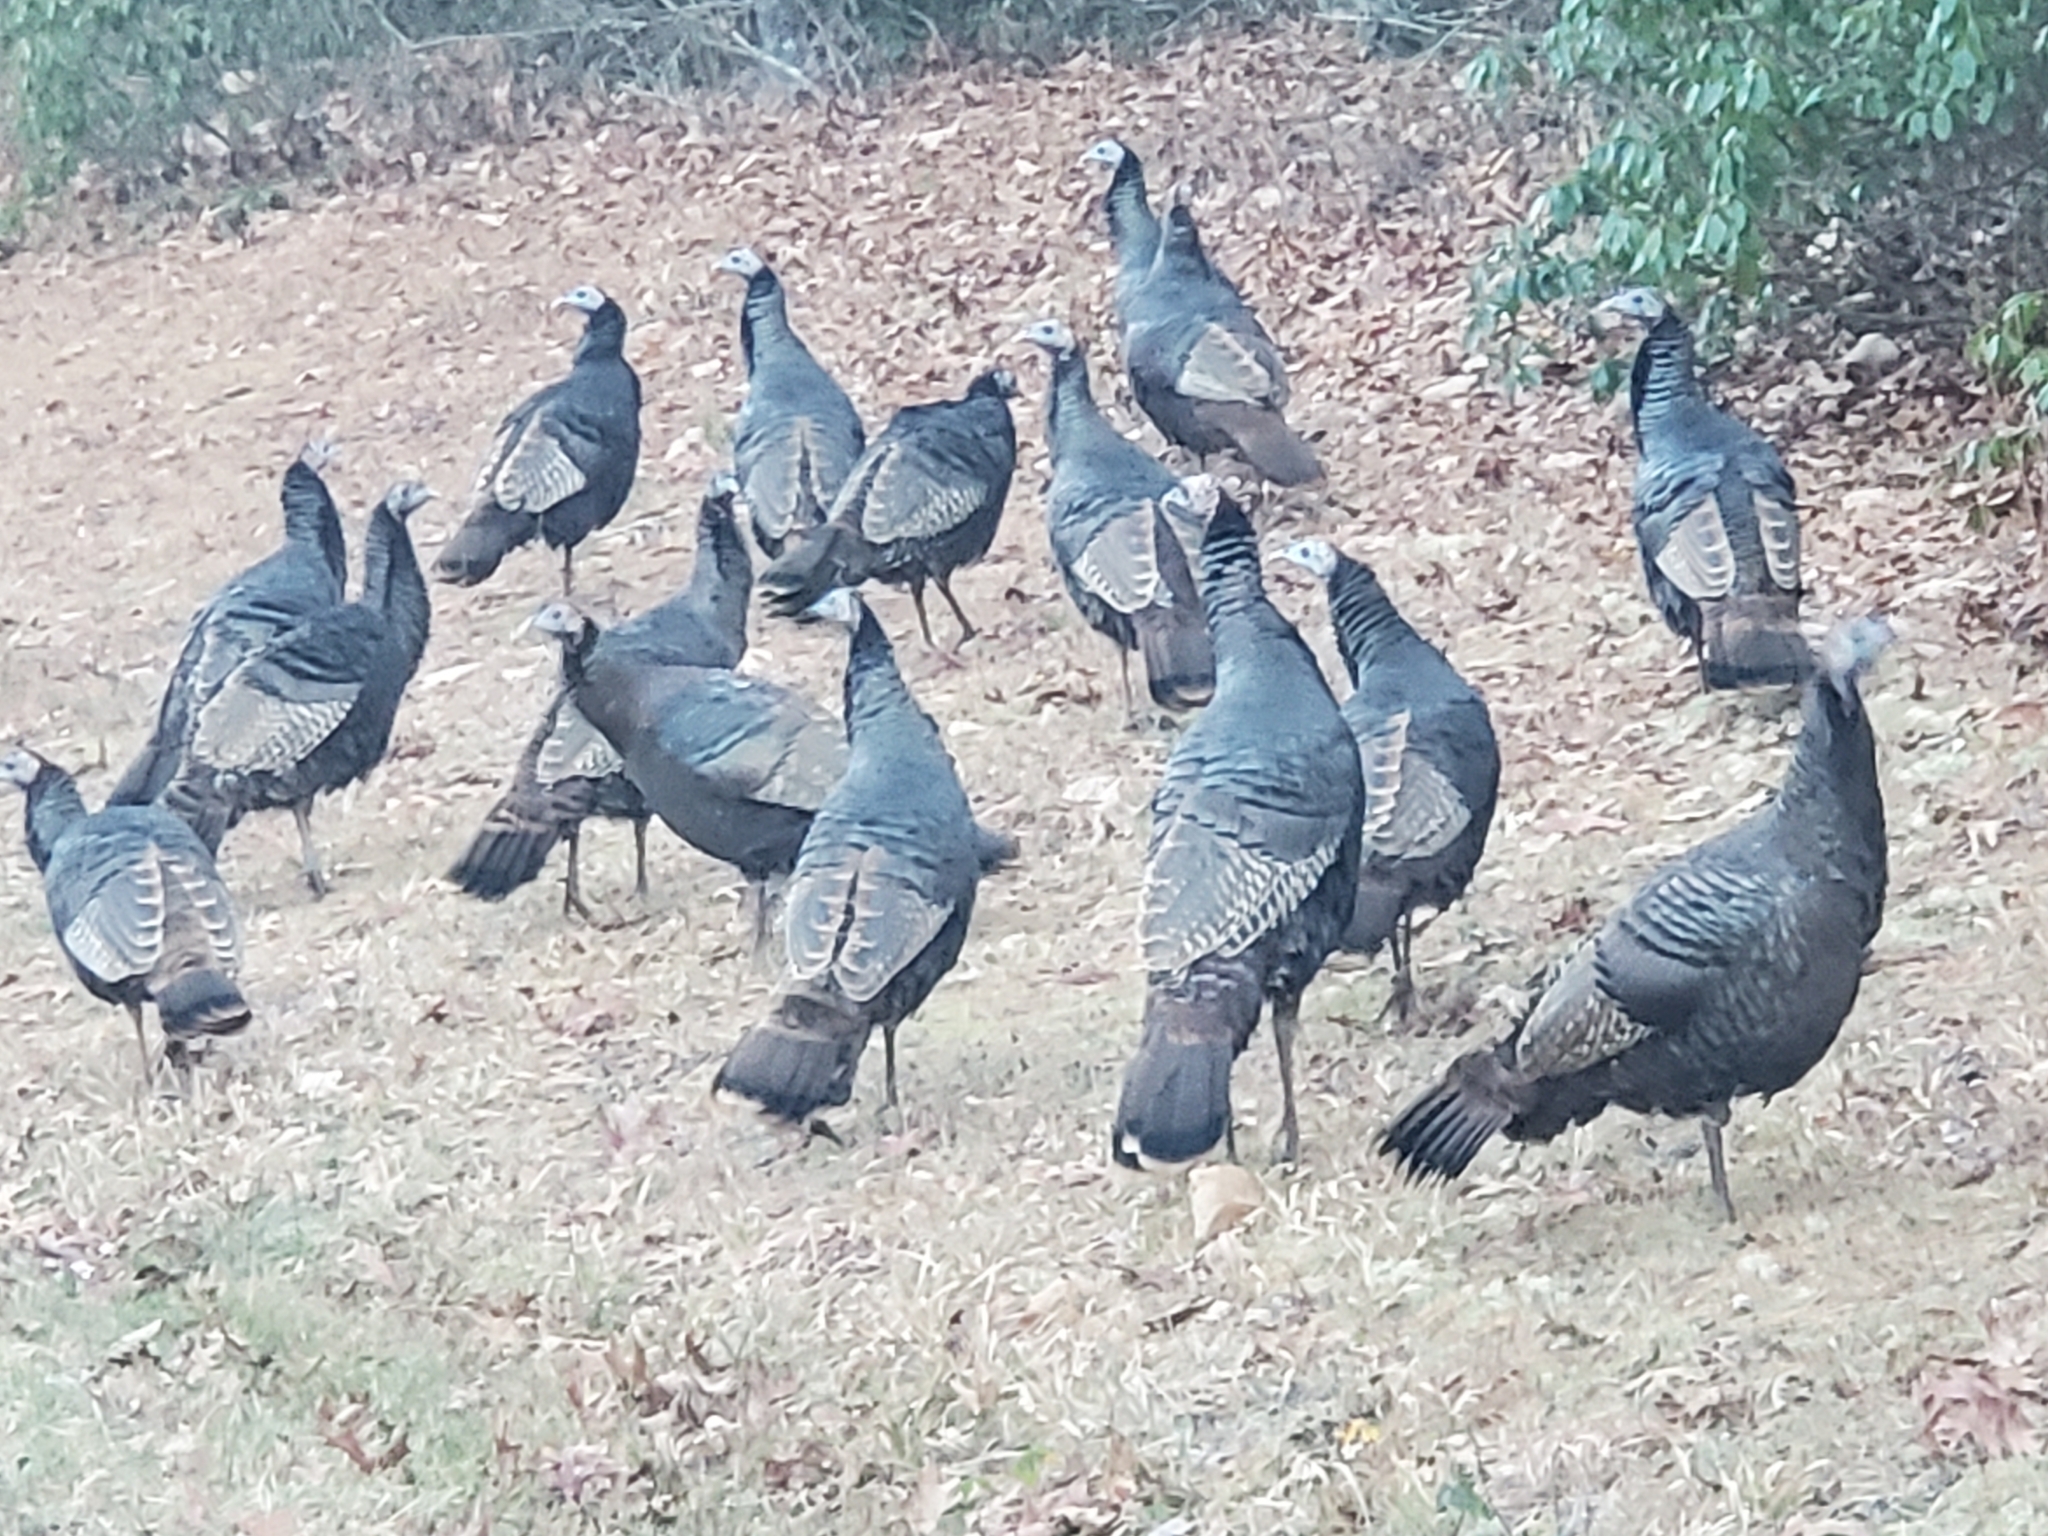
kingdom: Animalia
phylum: Chordata
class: Aves
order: Galliformes
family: Phasianidae
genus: Meleagris
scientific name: Meleagris gallopavo
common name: Wild turkey
